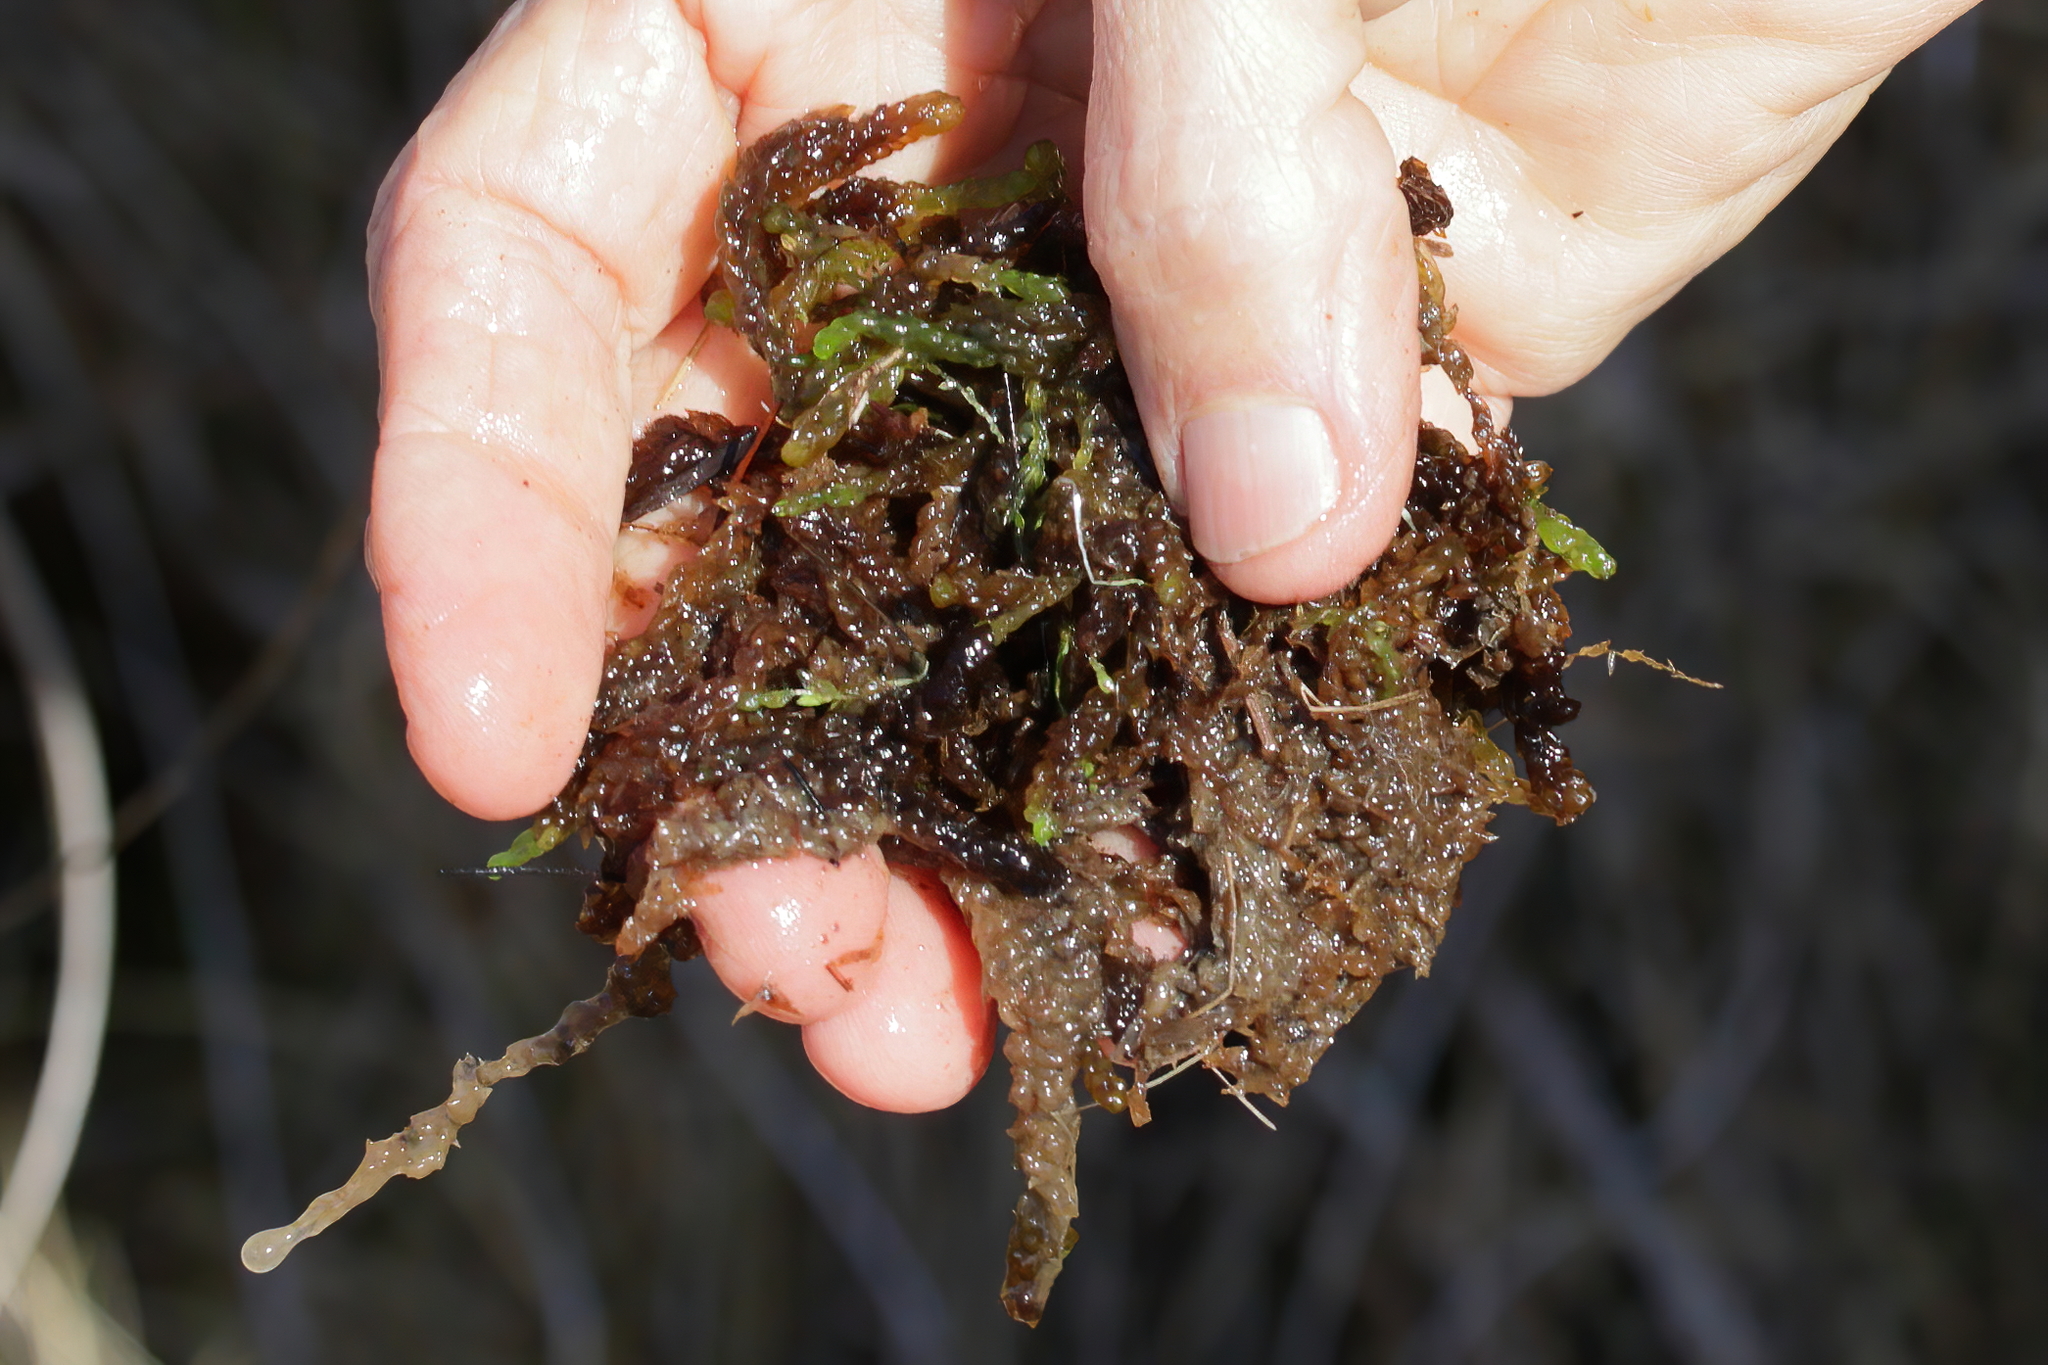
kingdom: Plantae
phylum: Bryophyta
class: Sphagnopsida
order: Sphagnales
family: Sphagnaceae
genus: Sphagnum
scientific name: Sphagnum cyclophyllum
